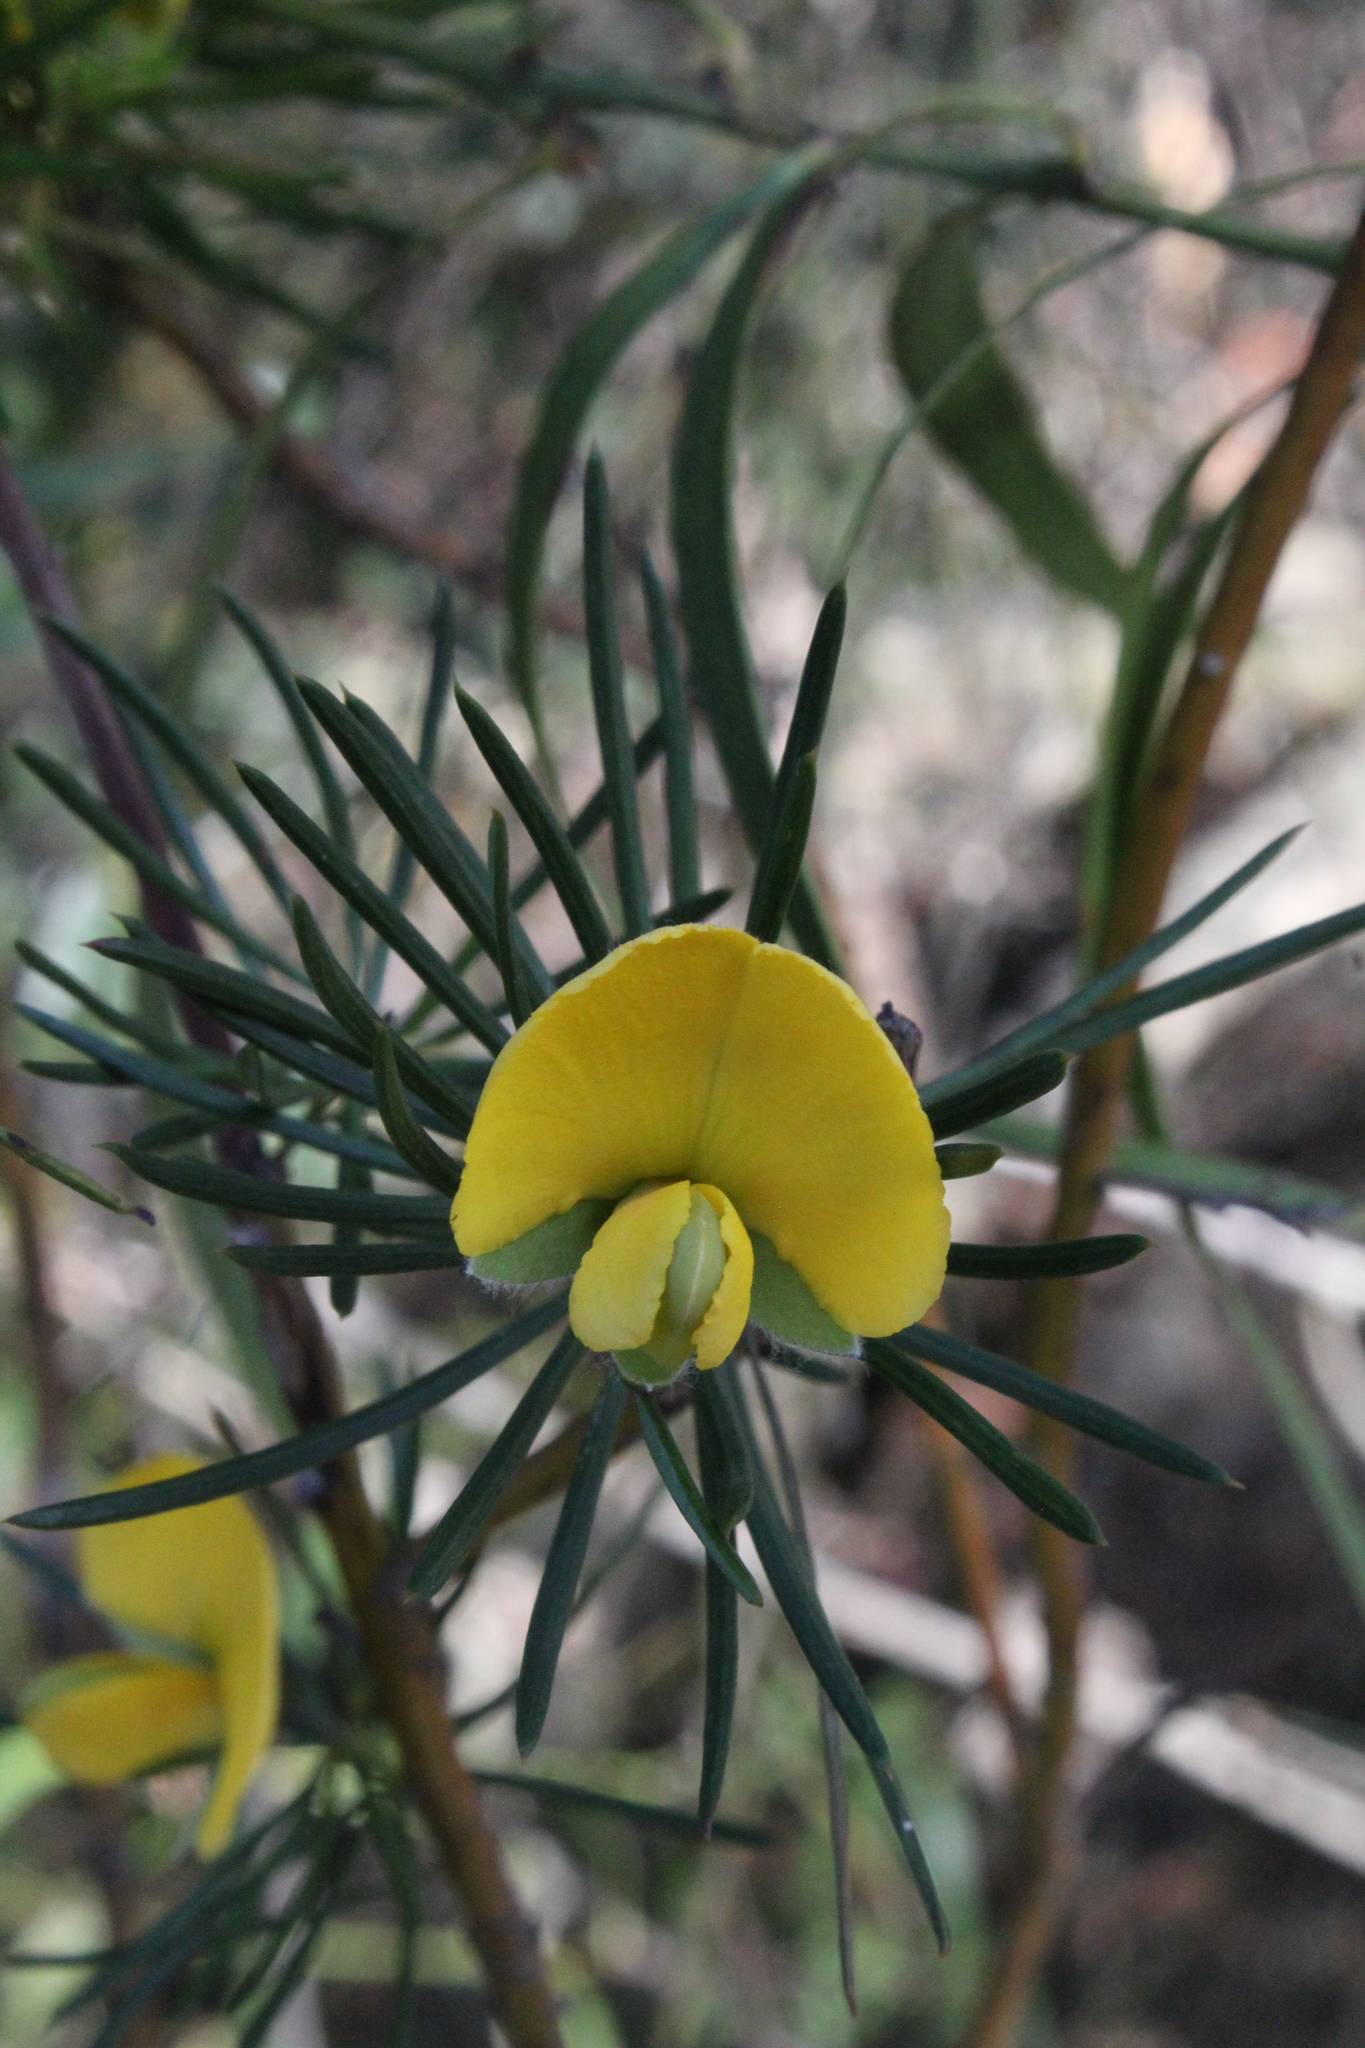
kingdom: Plantae
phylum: Tracheophyta
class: Magnoliopsida
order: Fabales
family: Fabaceae
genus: Gompholobium
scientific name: Gompholobium grandiflorum
